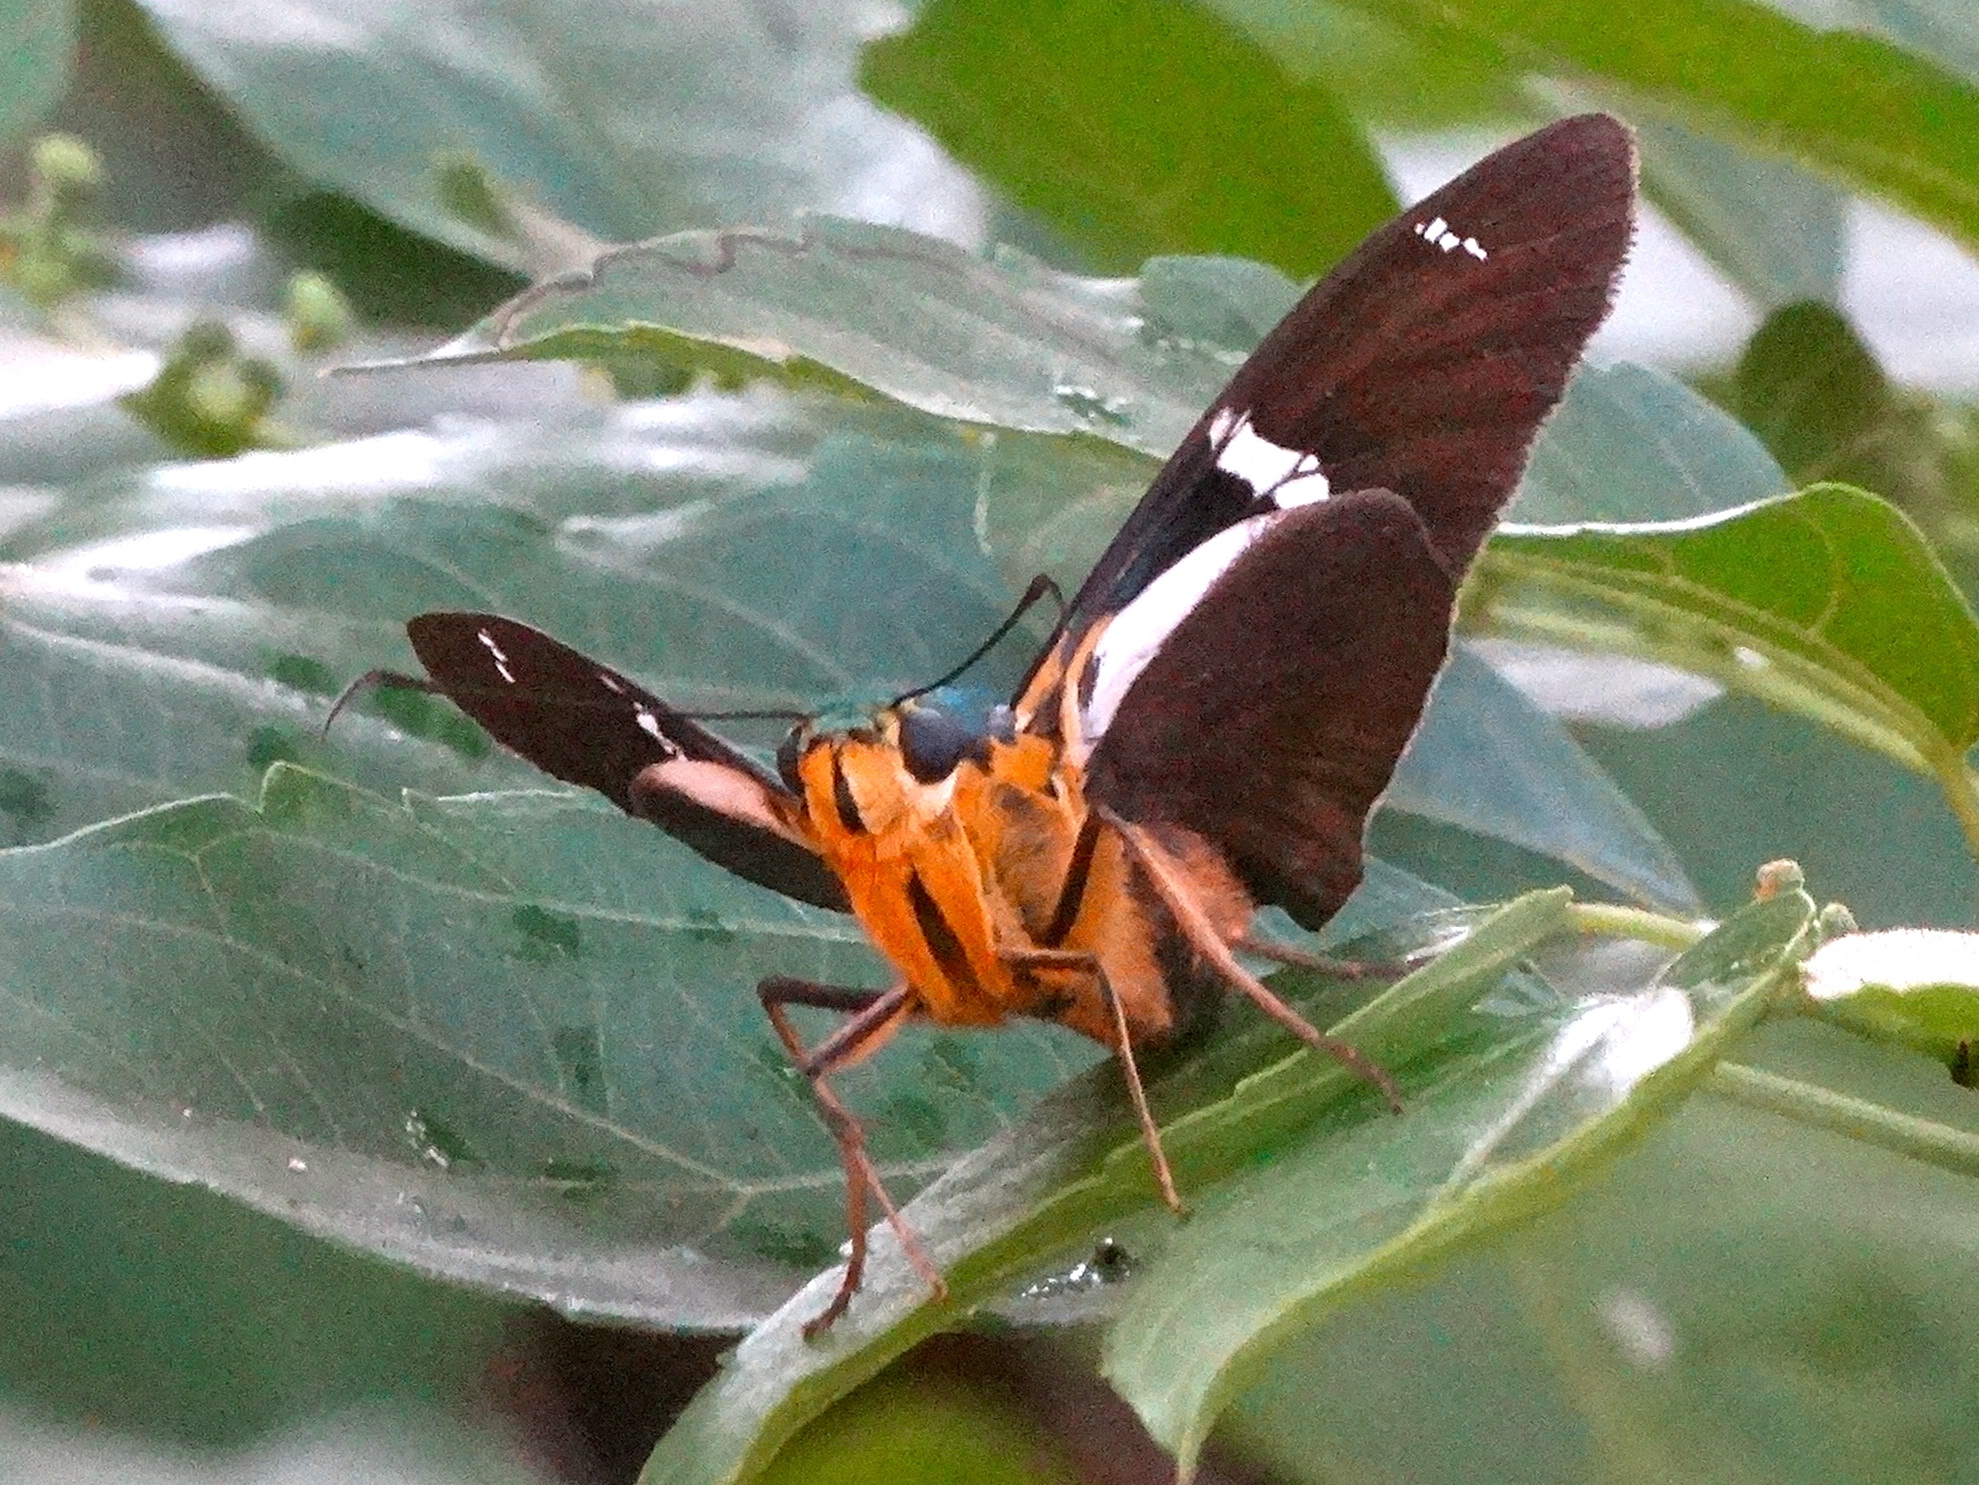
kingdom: Animalia
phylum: Arthropoda
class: Insecta
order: Lepidoptera
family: Hesperiidae
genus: Astraptes
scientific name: Astraptes fulgerator
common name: Two-barred flasher
